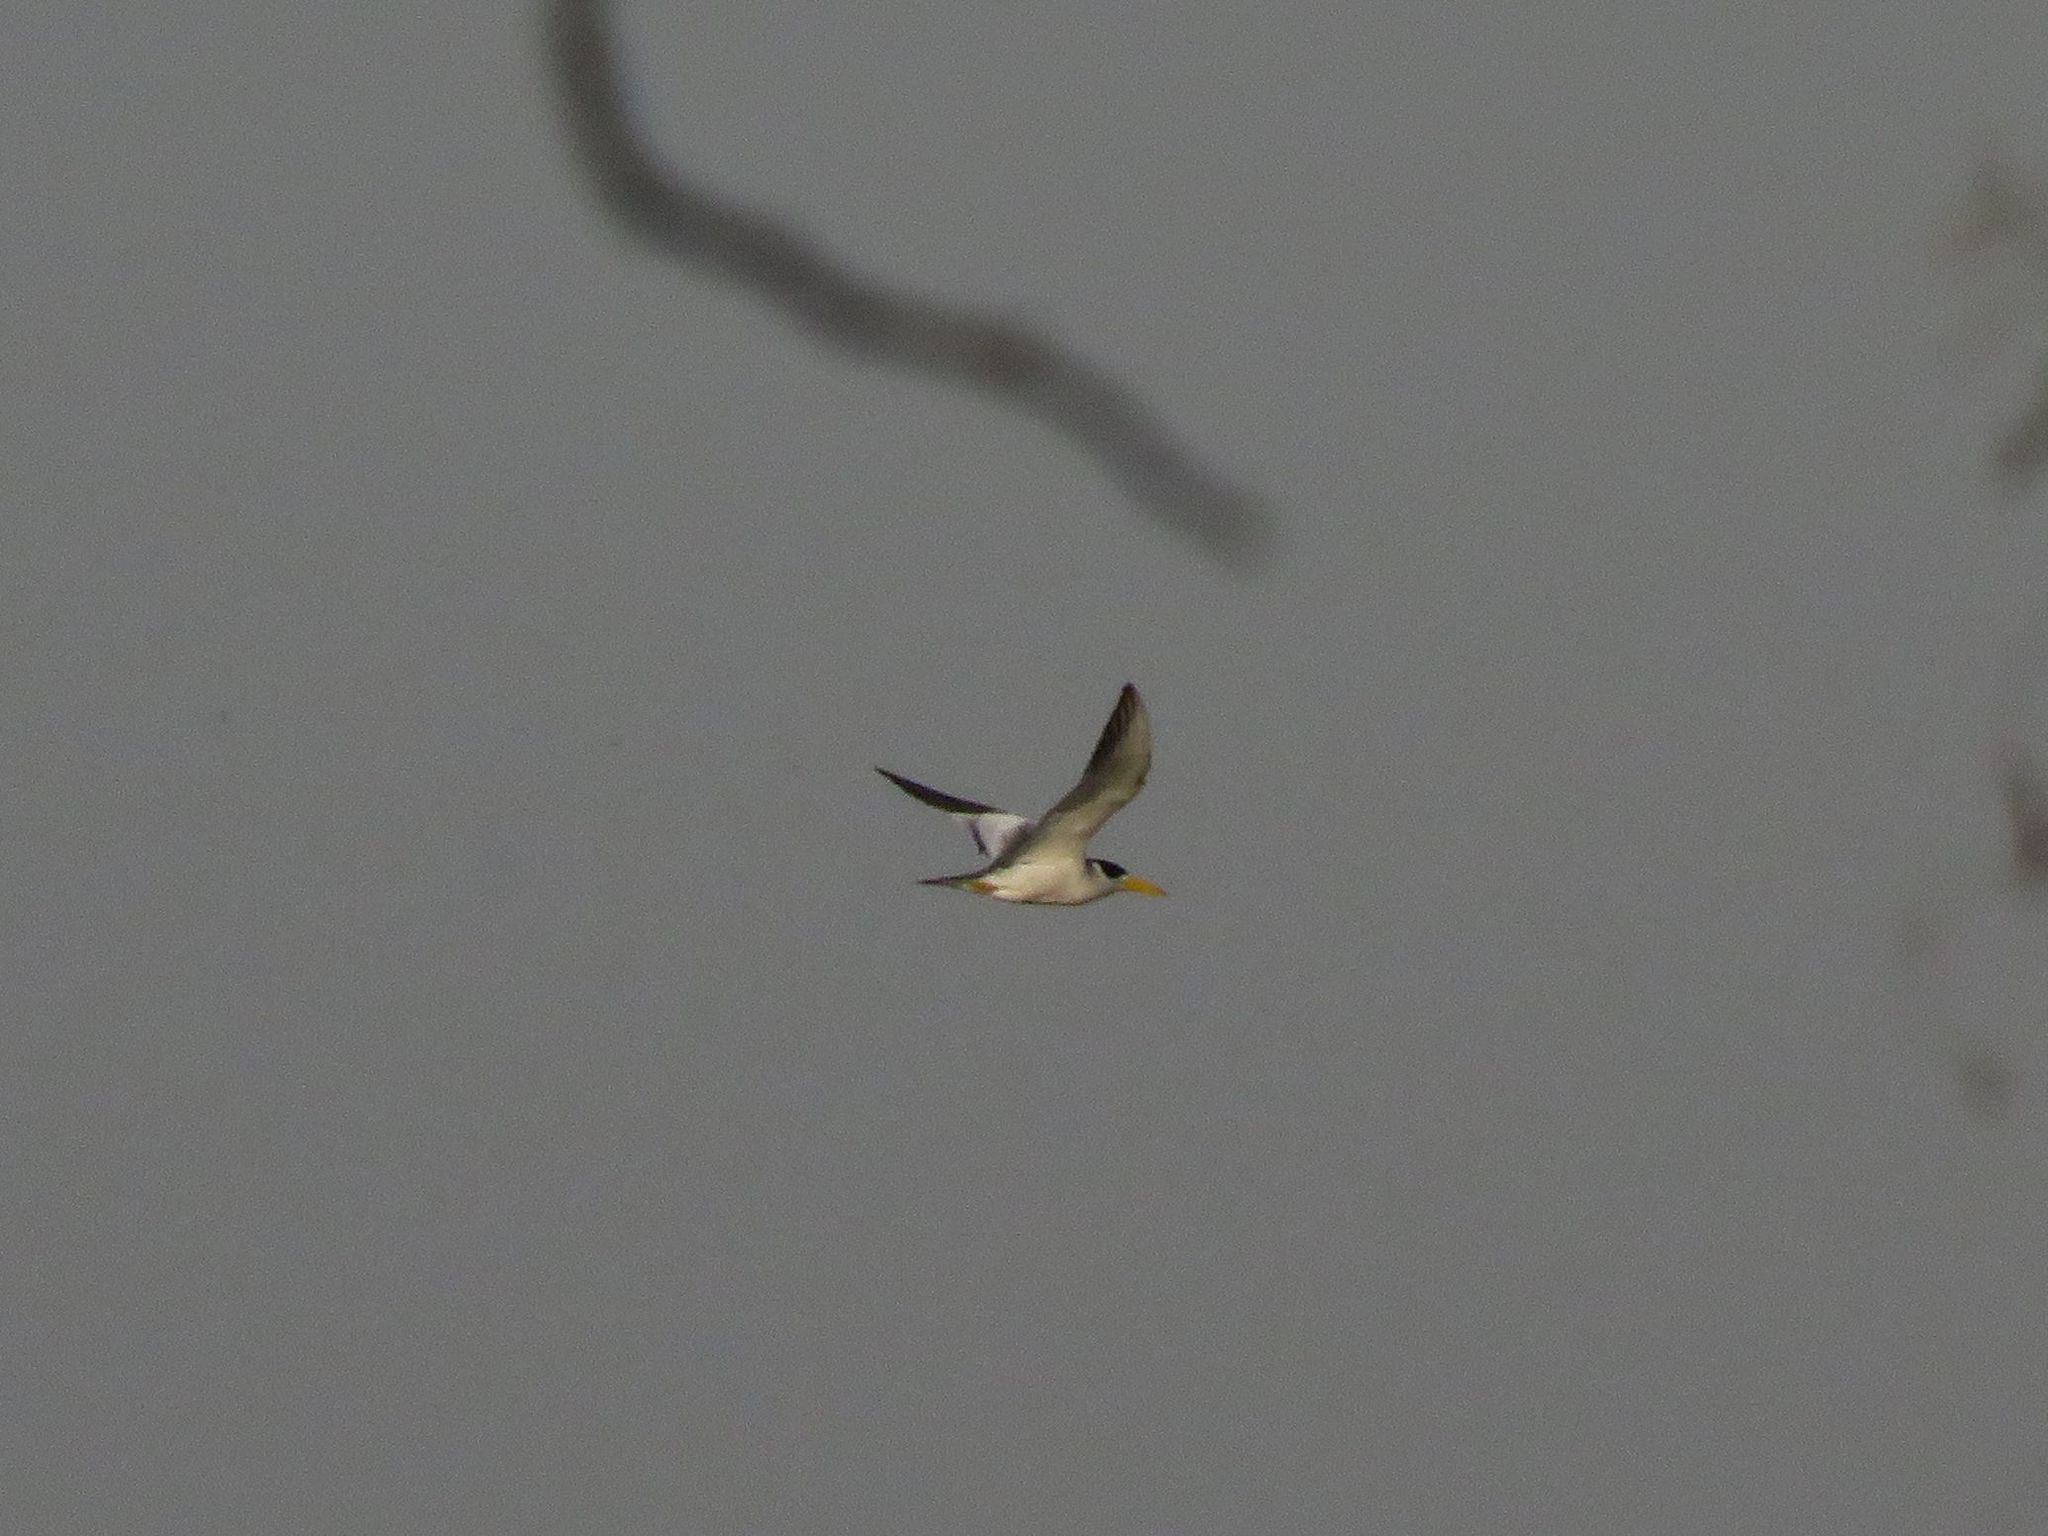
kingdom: Animalia
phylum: Chordata
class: Aves
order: Charadriiformes
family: Laridae
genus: Phaetusa
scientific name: Phaetusa simplex
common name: Large-billed tern
